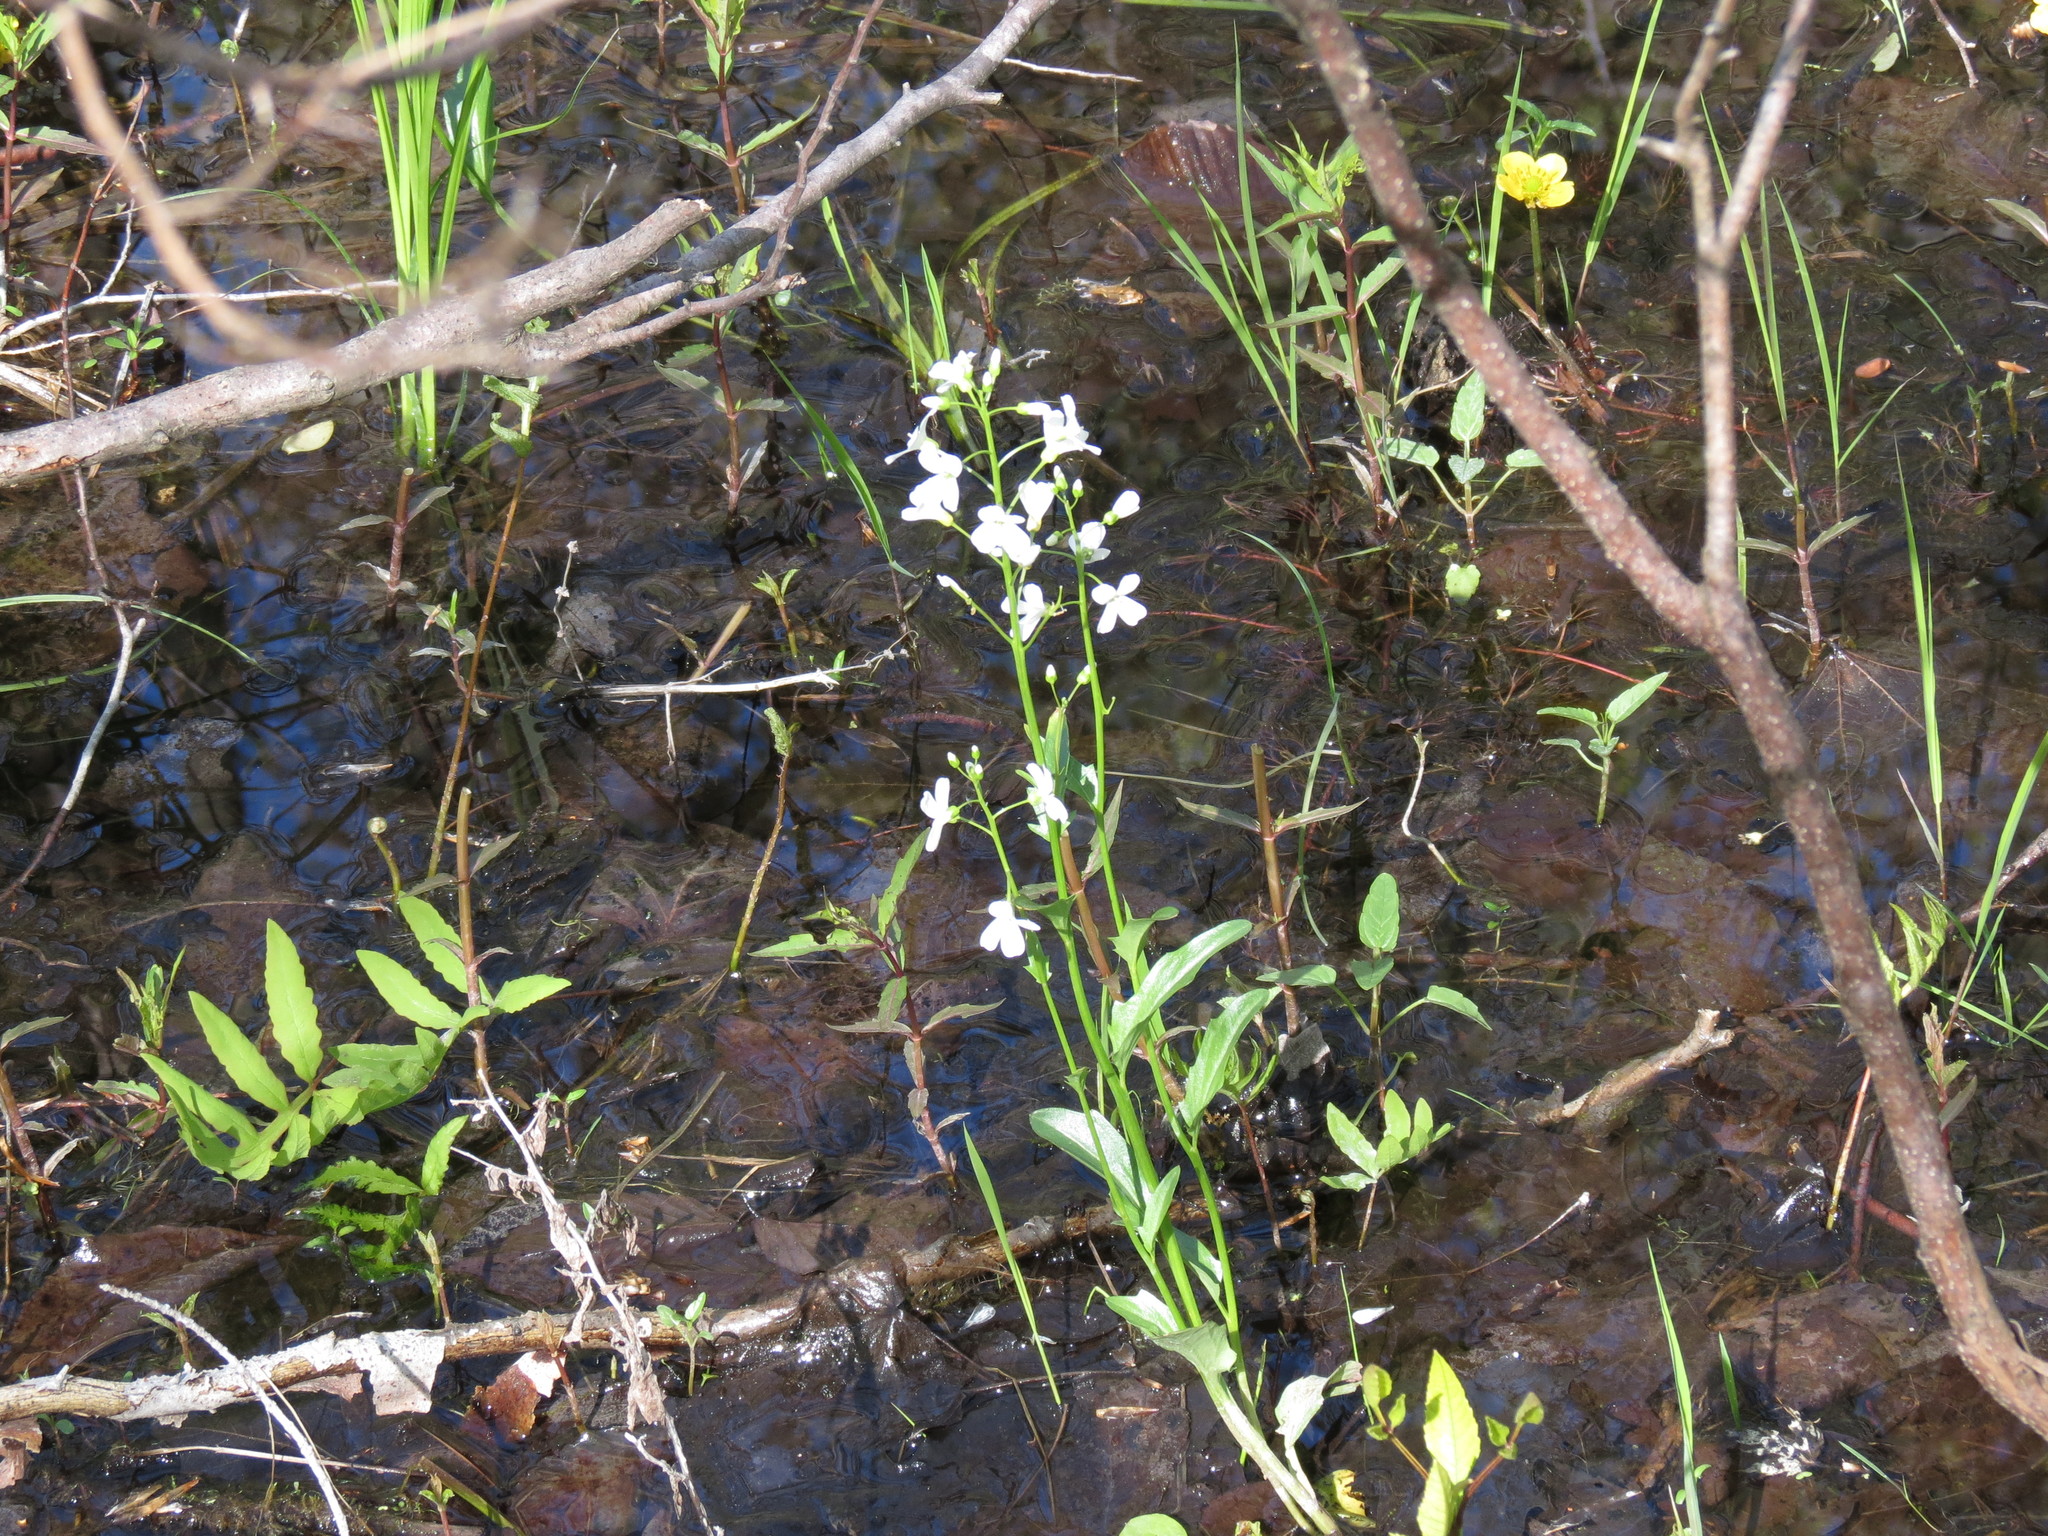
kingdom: Plantae
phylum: Tracheophyta
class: Magnoliopsida
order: Brassicales
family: Brassicaceae
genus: Cardamine
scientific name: Cardamine bulbosa
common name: Spring cress
